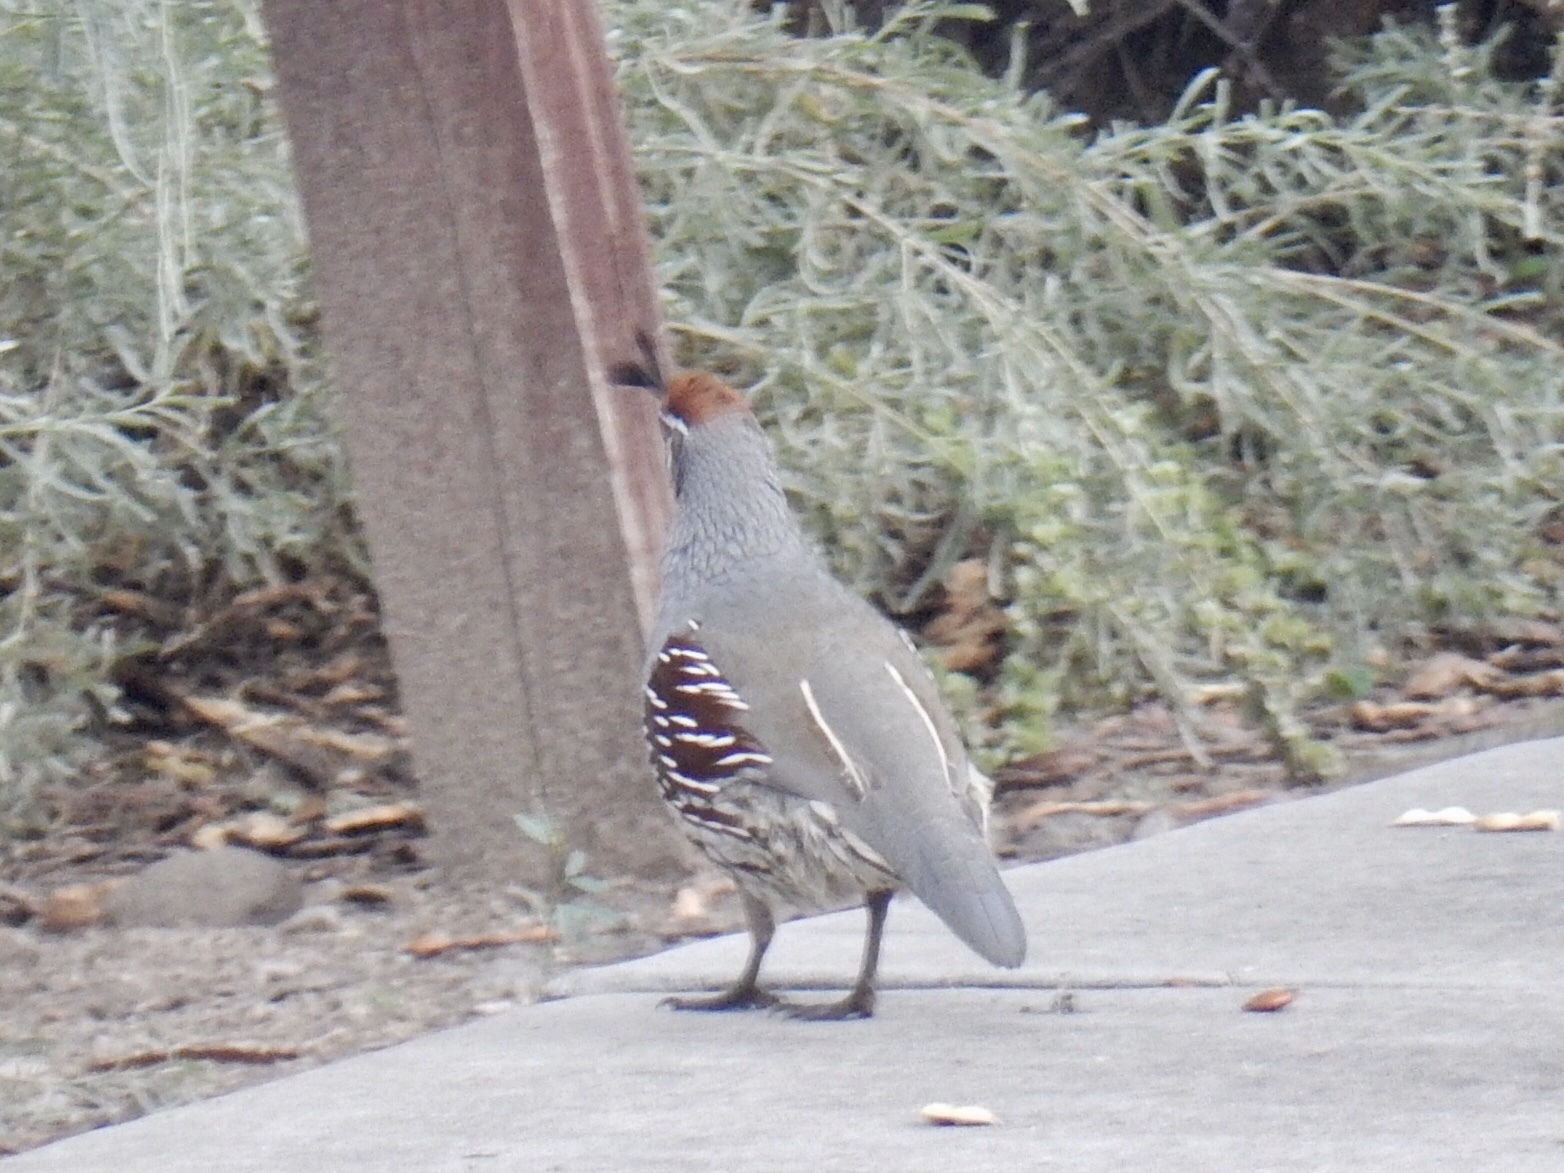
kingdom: Animalia
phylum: Chordata
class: Aves
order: Galliformes
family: Odontophoridae
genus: Callipepla
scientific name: Callipepla gambelii
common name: Gambel's quail
